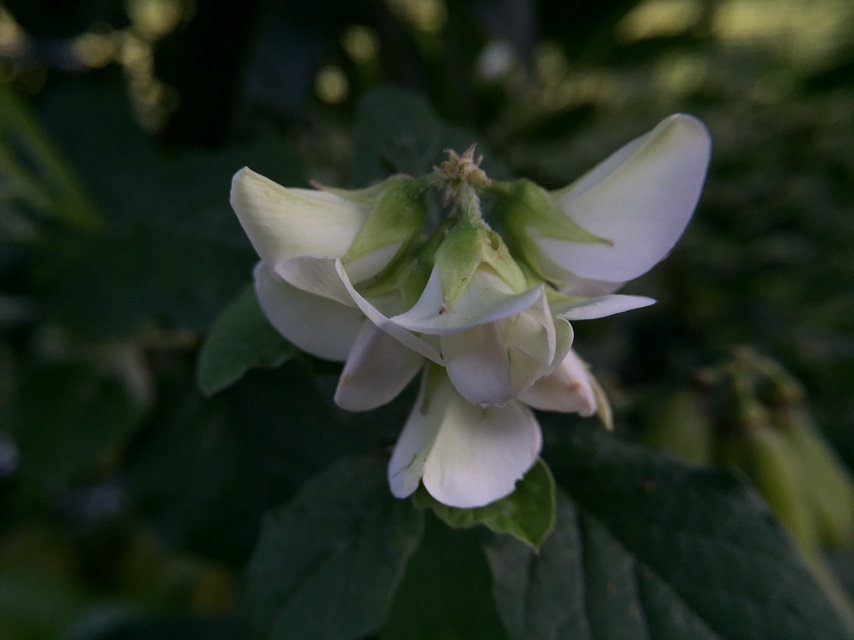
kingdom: Plantae
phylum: Tracheophyta
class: Magnoliopsida
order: Fabales
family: Fabaceae
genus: Crotalaria
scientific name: Crotalaria verrucosa
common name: Blue rattlesnake
